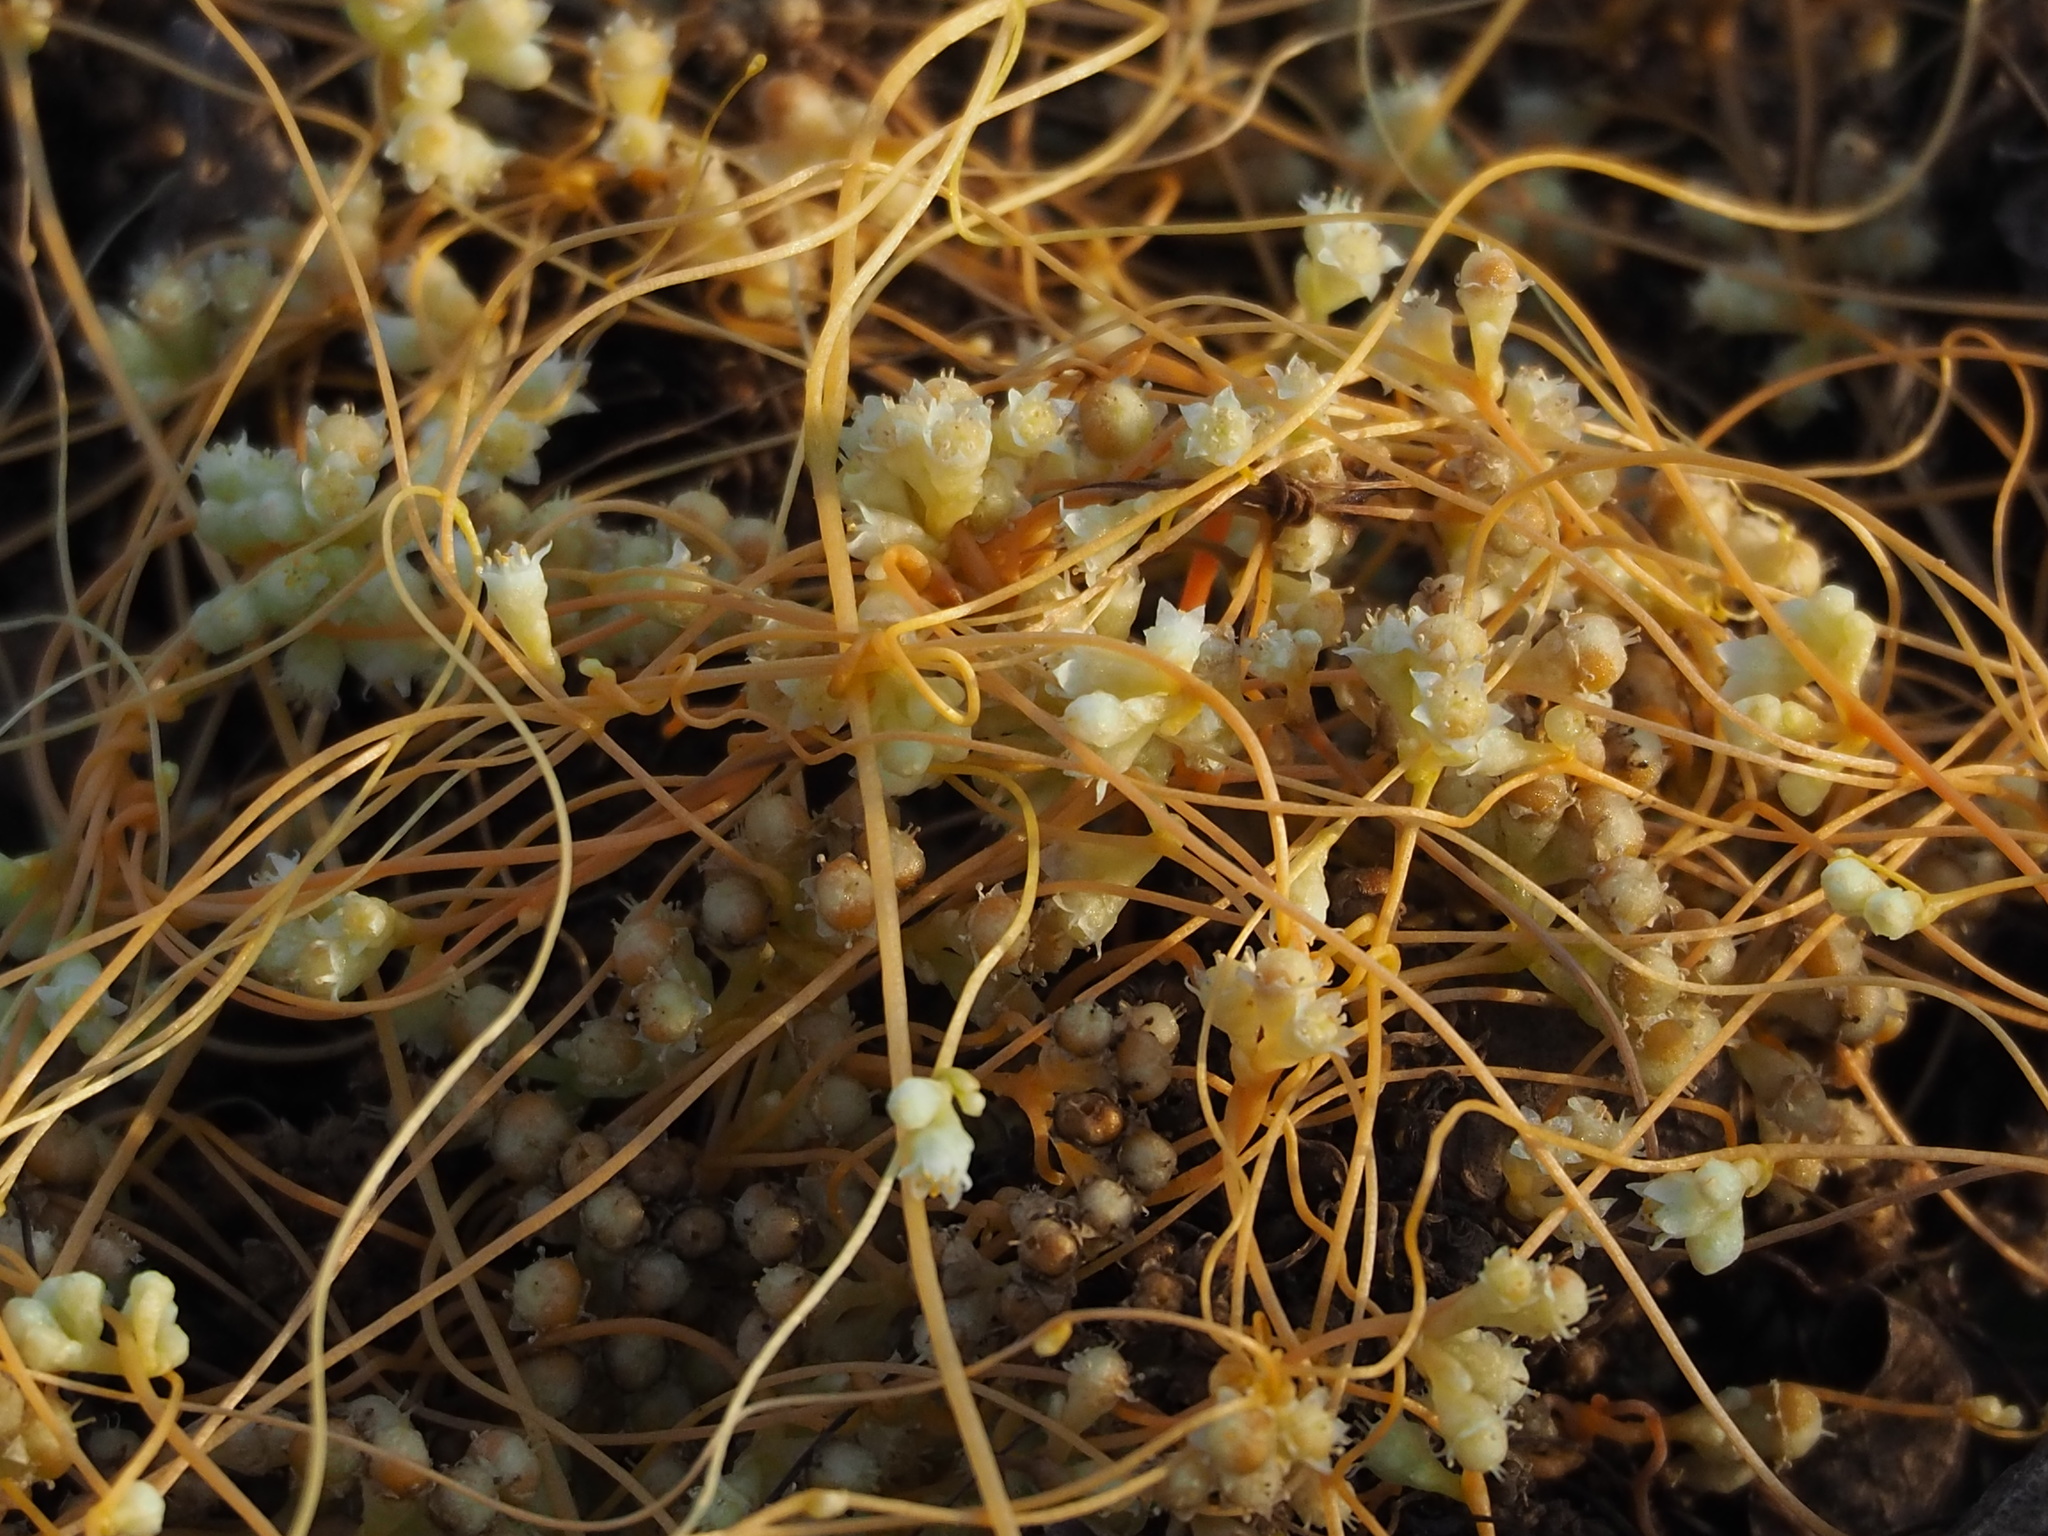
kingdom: Plantae
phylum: Tracheophyta
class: Magnoliopsida
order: Solanales
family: Convolvulaceae
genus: Cuscuta
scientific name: Cuscuta campestris
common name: Yellow dodder
